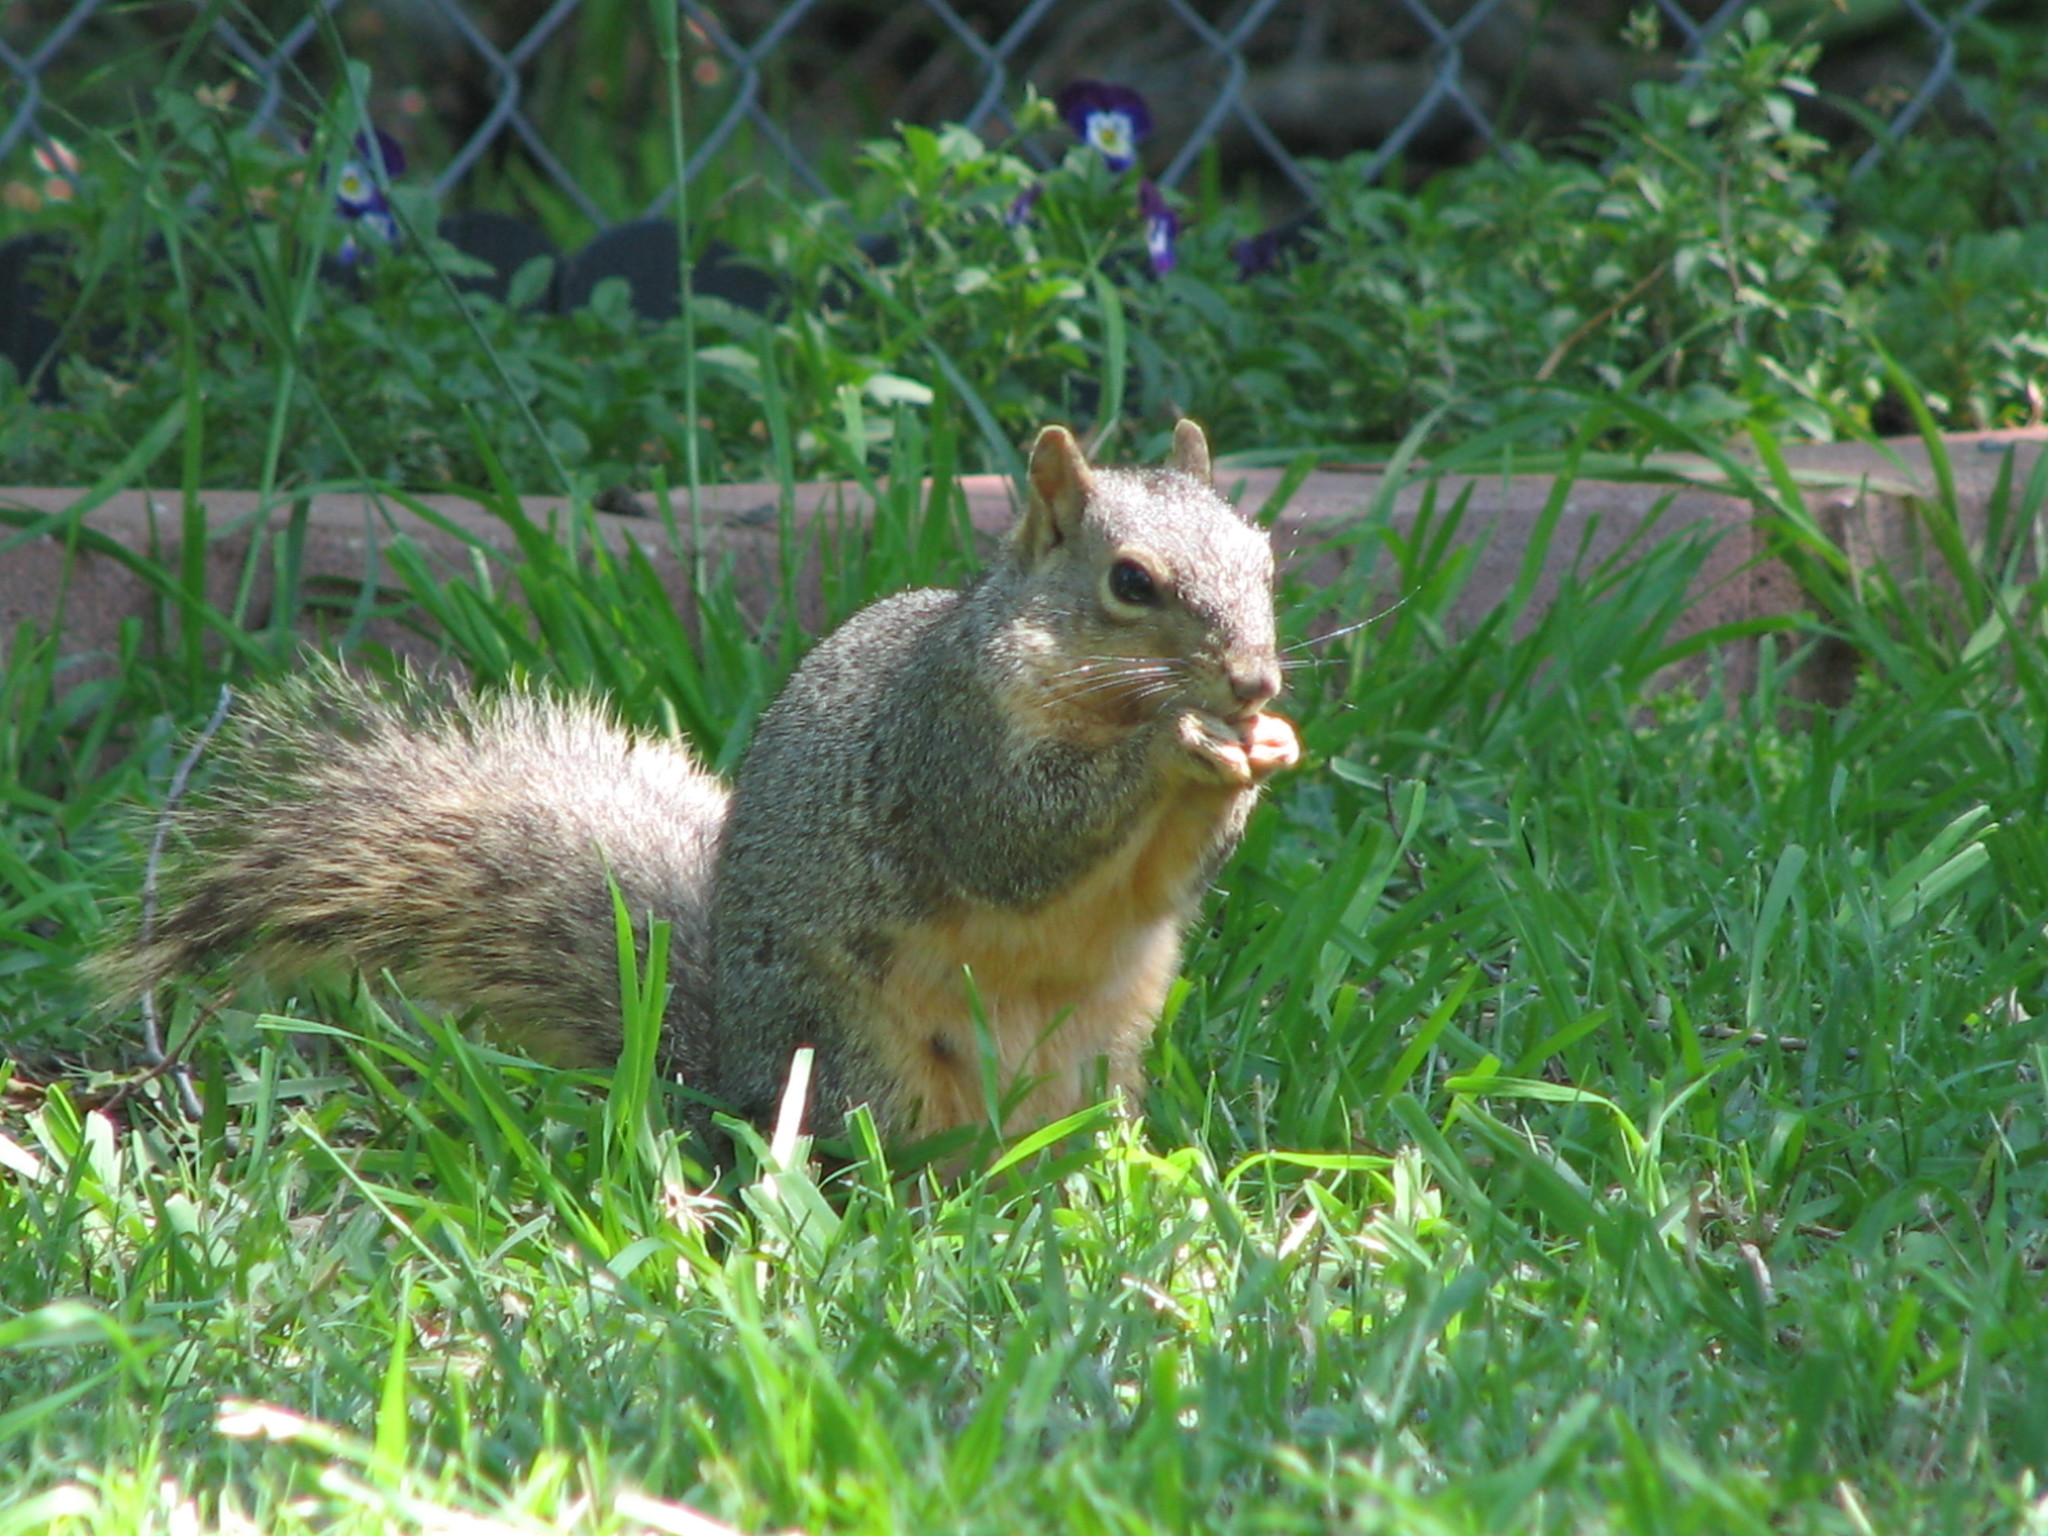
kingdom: Animalia
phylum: Chordata
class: Mammalia
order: Rodentia
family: Sciuridae
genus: Sciurus
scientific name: Sciurus niger
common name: Fox squirrel
